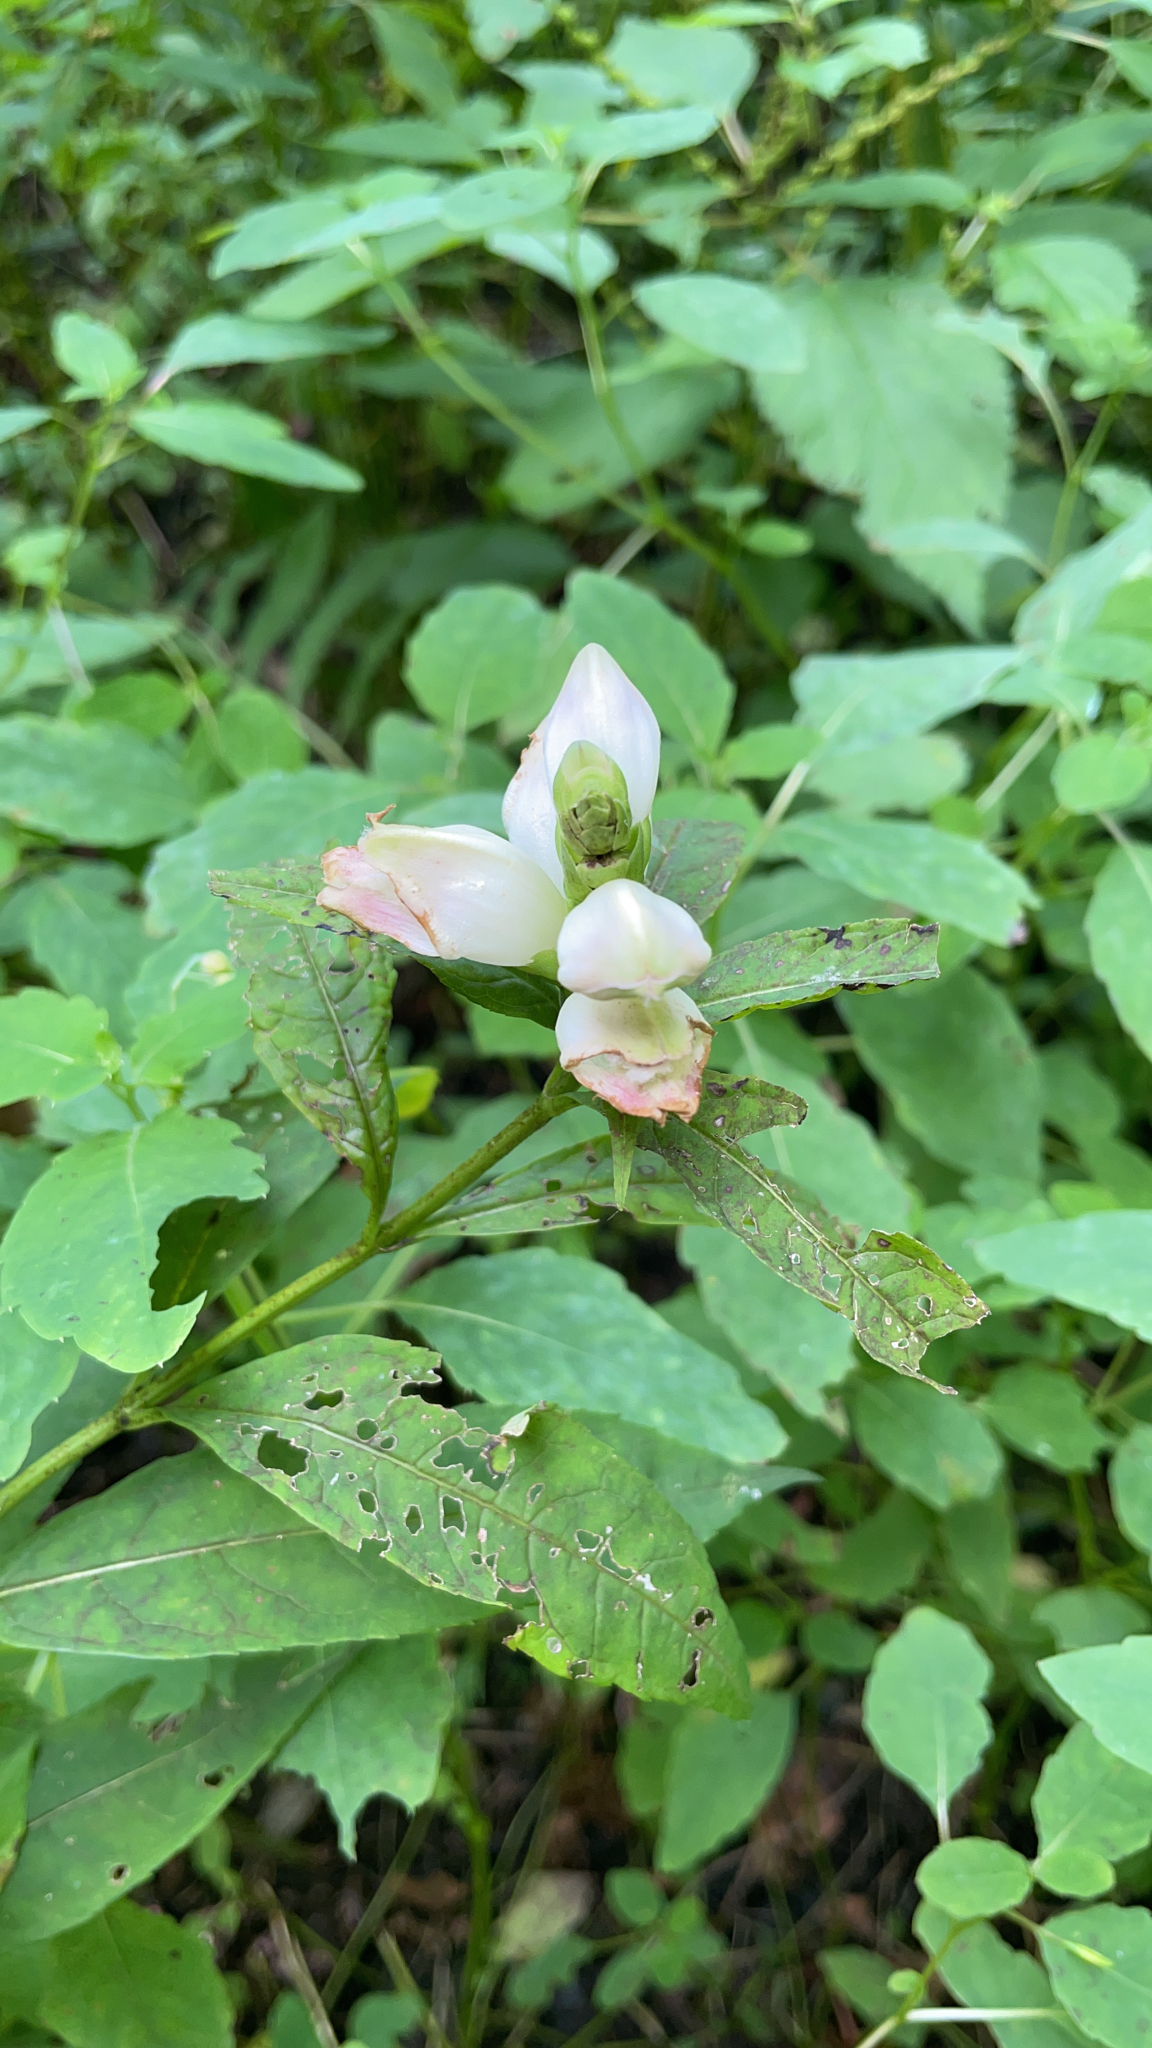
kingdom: Plantae
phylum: Tracheophyta
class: Magnoliopsida
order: Lamiales
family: Plantaginaceae
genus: Chelone
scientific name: Chelone glabra
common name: Snakehead
